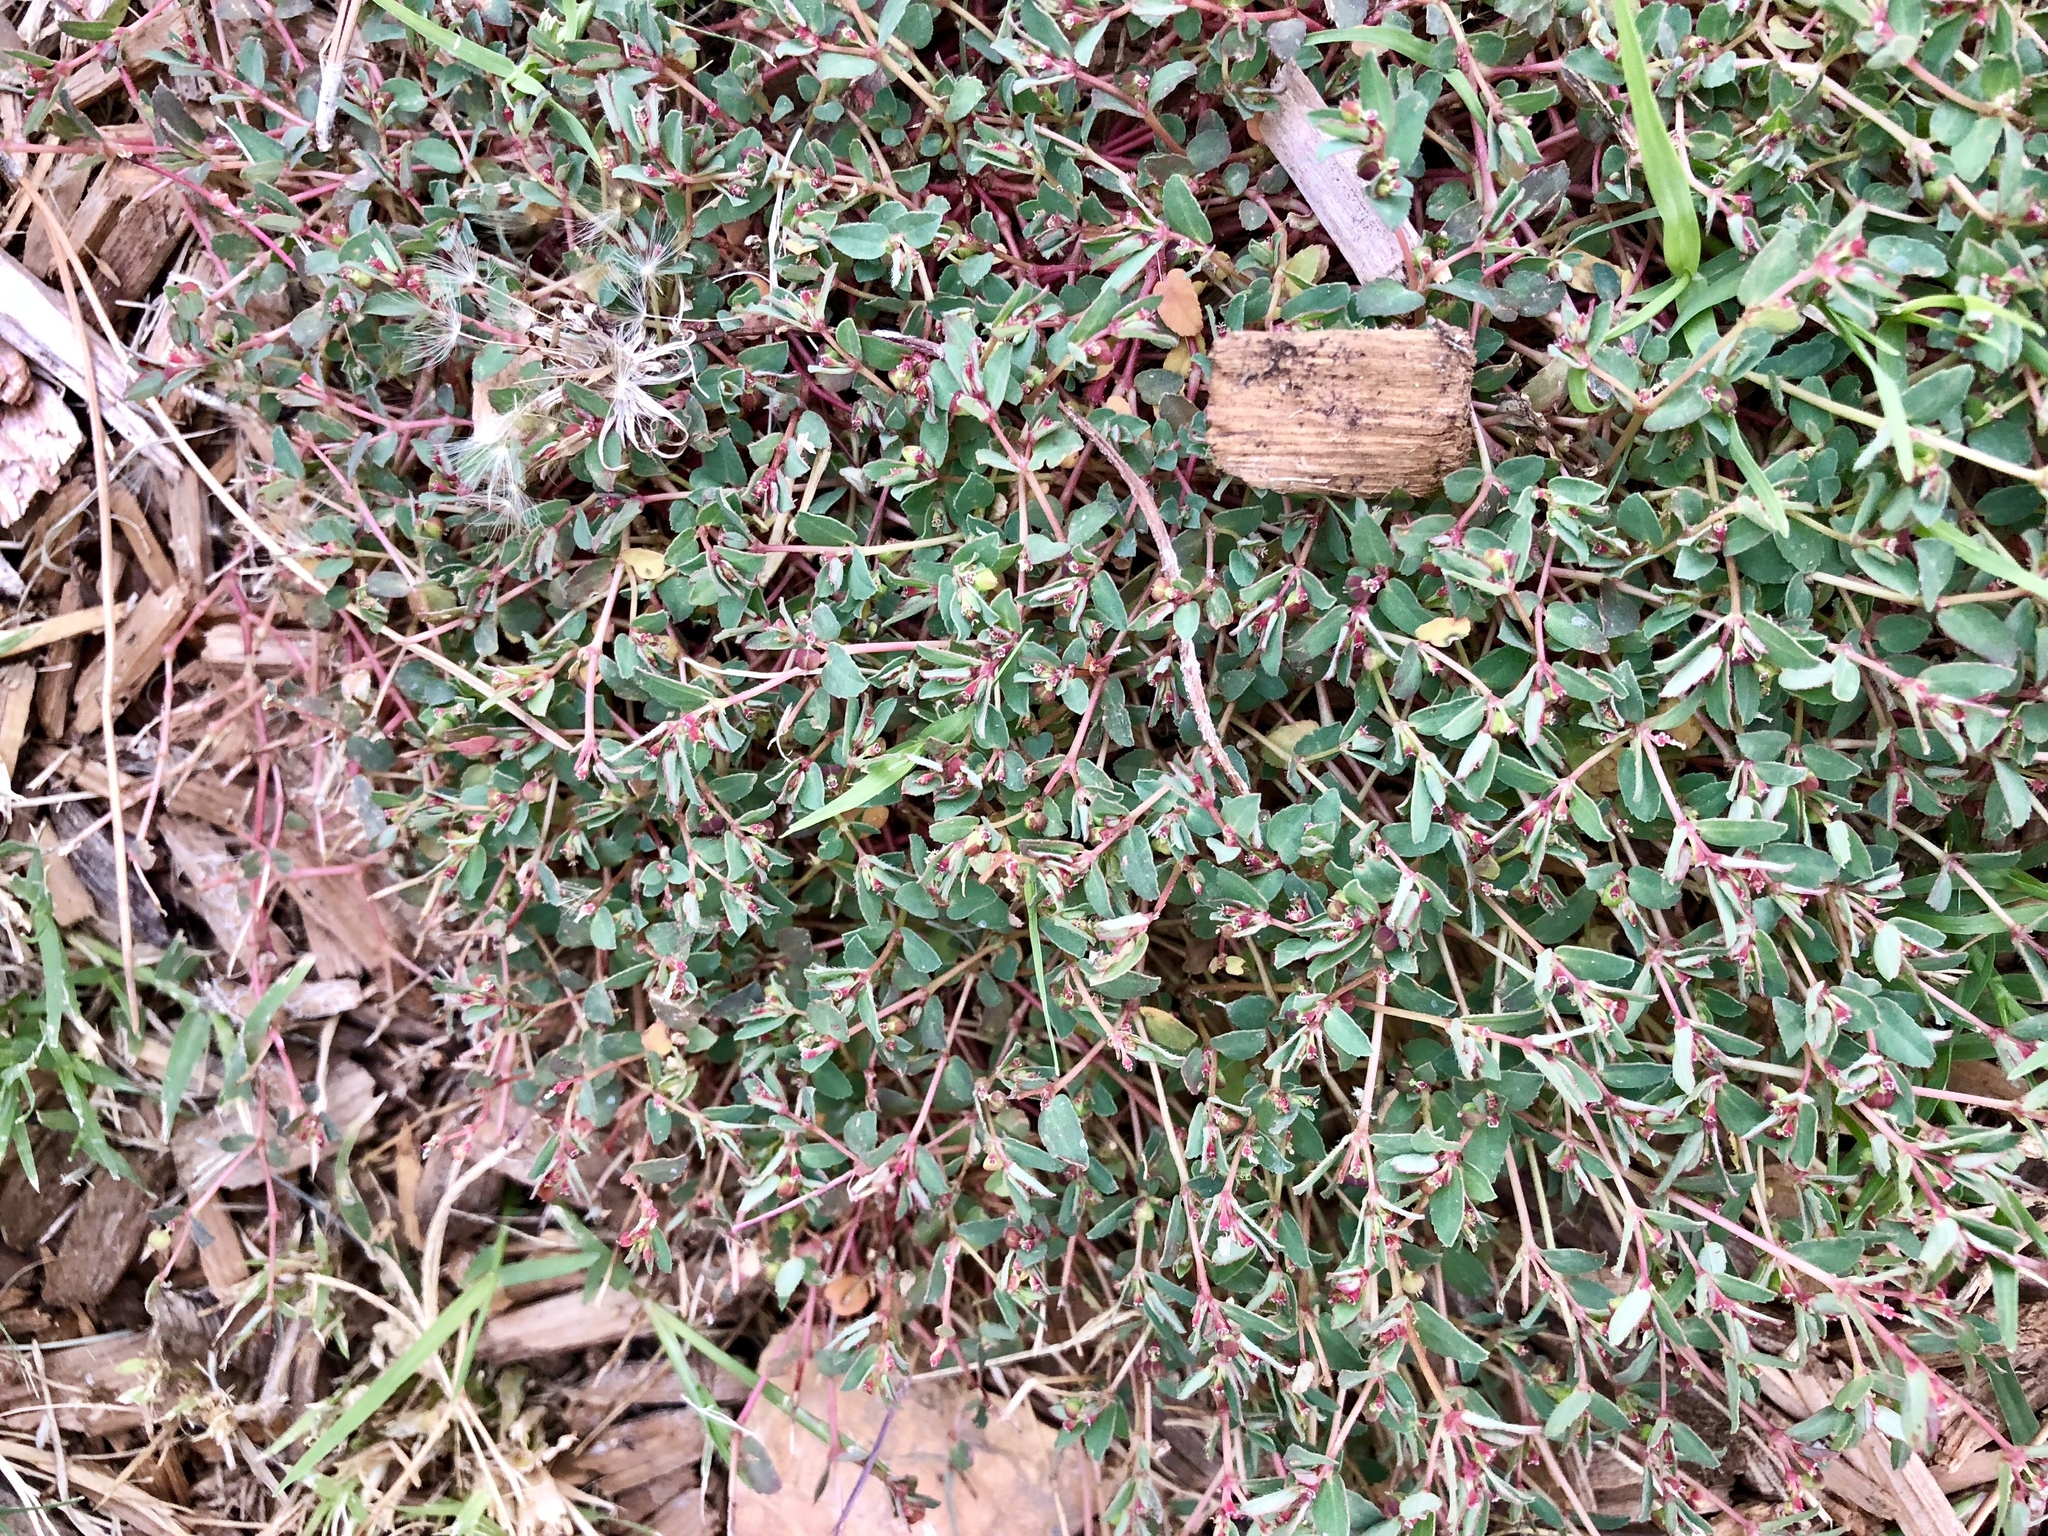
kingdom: Plantae
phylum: Tracheophyta
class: Magnoliopsida
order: Malpighiales
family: Euphorbiaceae
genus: Euphorbia
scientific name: Euphorbia vermiculata
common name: Hairy spurge
